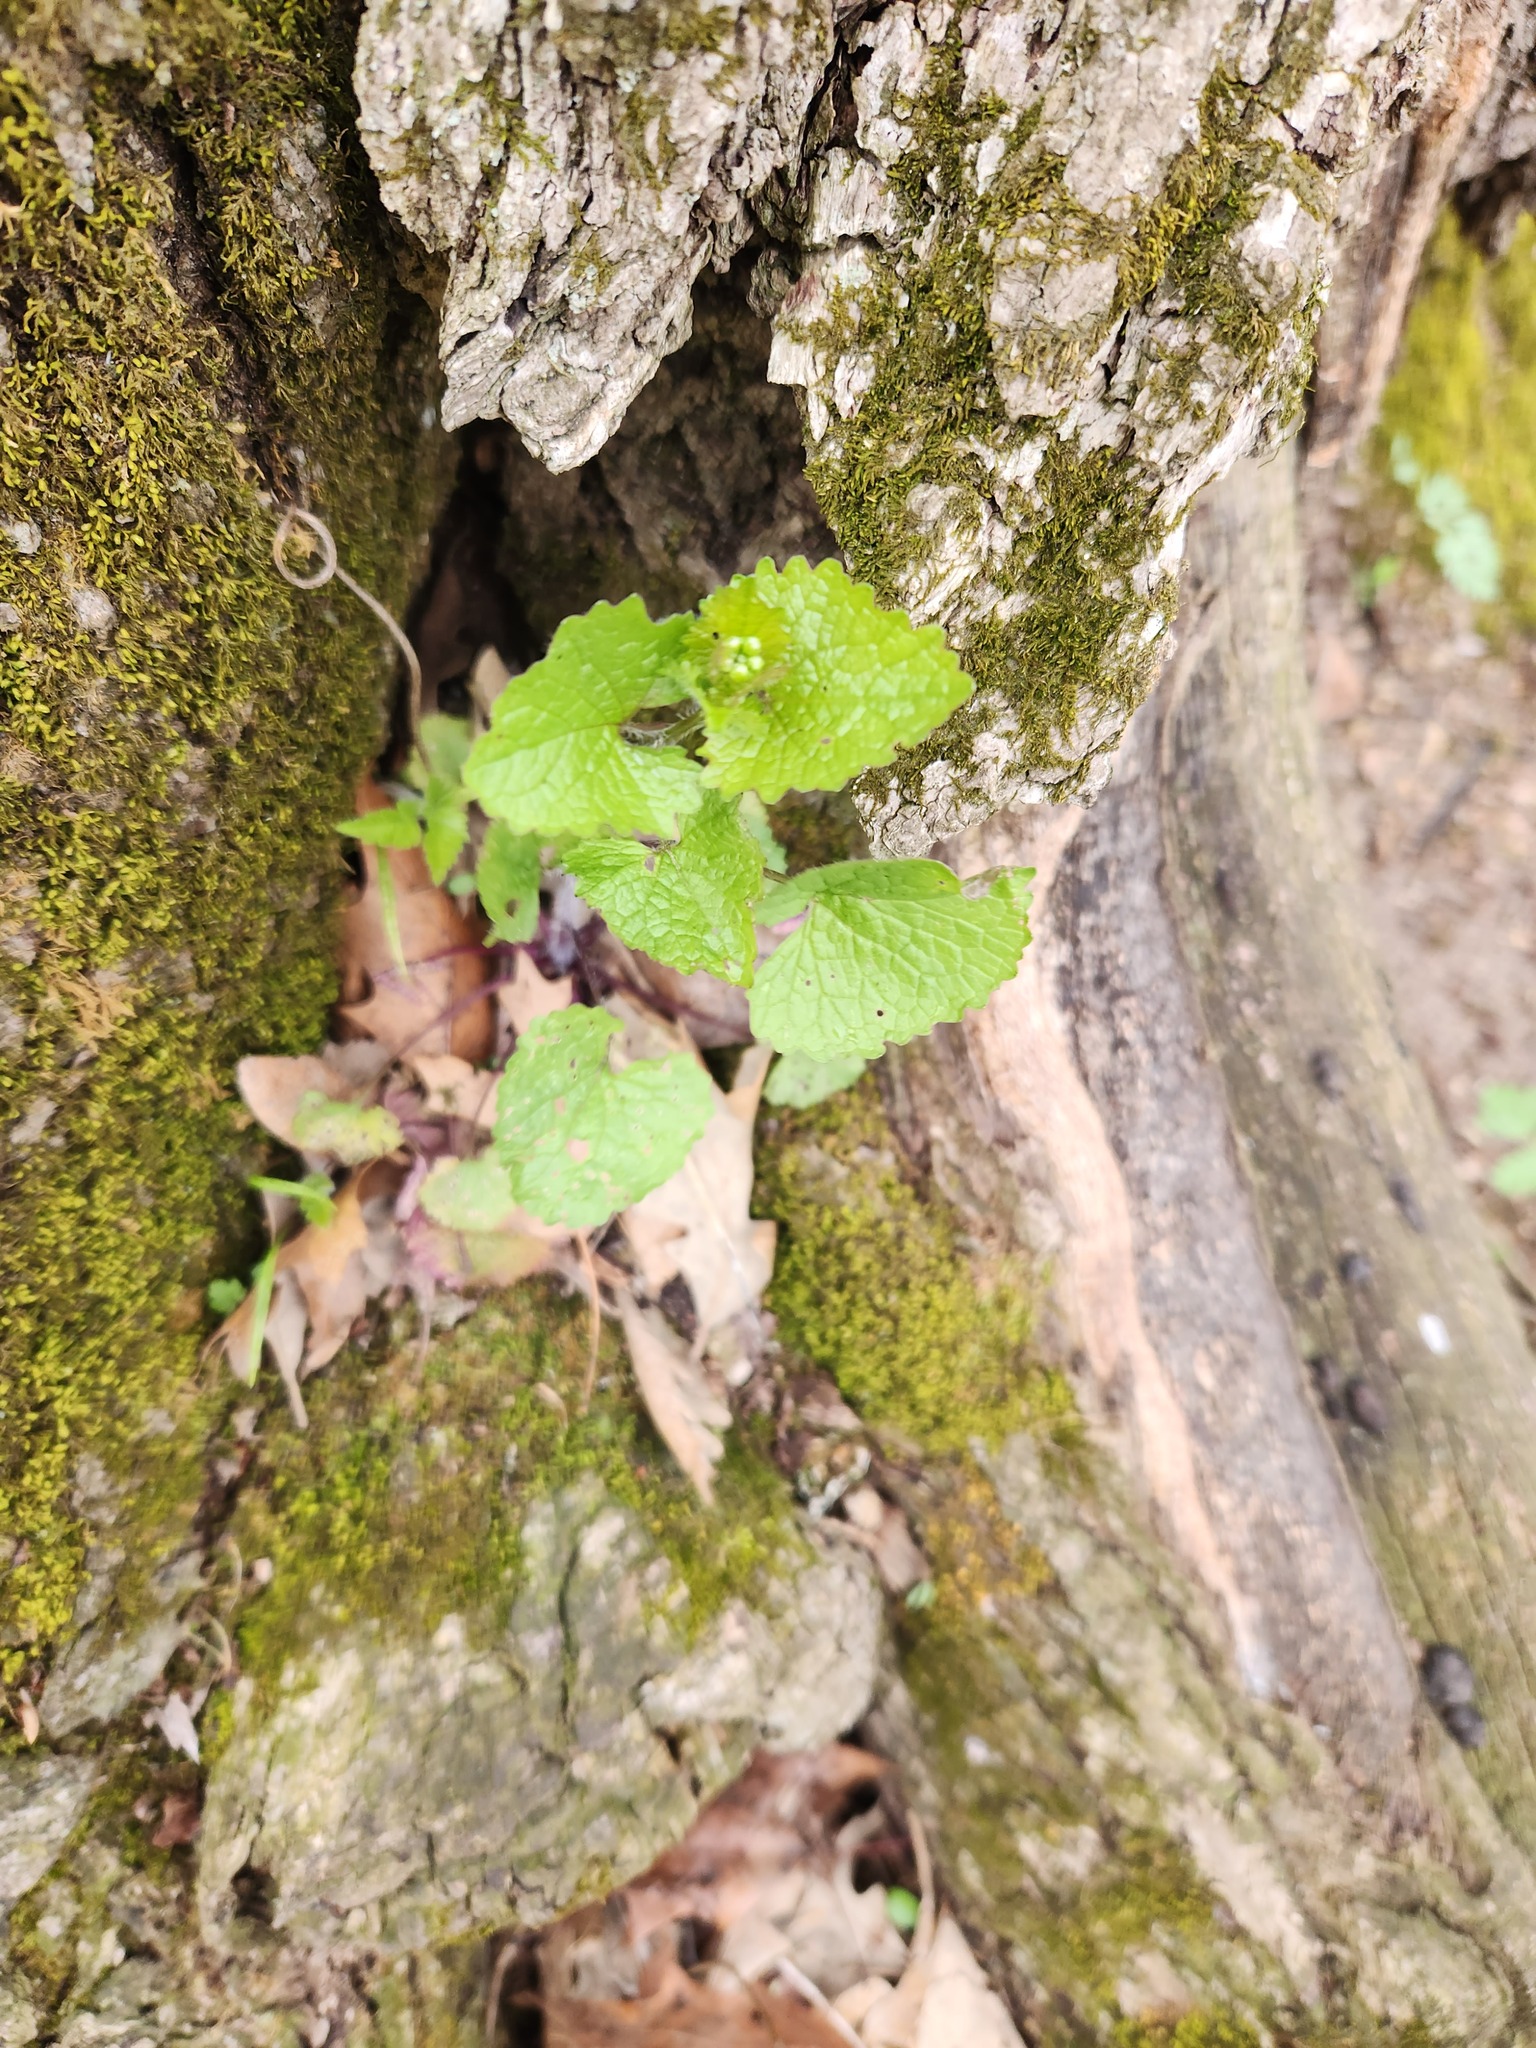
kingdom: Plantae
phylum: Tracheophyta
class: Magnoliopsida
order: Brassicales
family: Brassicaceae
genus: Alliaria
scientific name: Alliaria petiolata
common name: Garlic mustard
